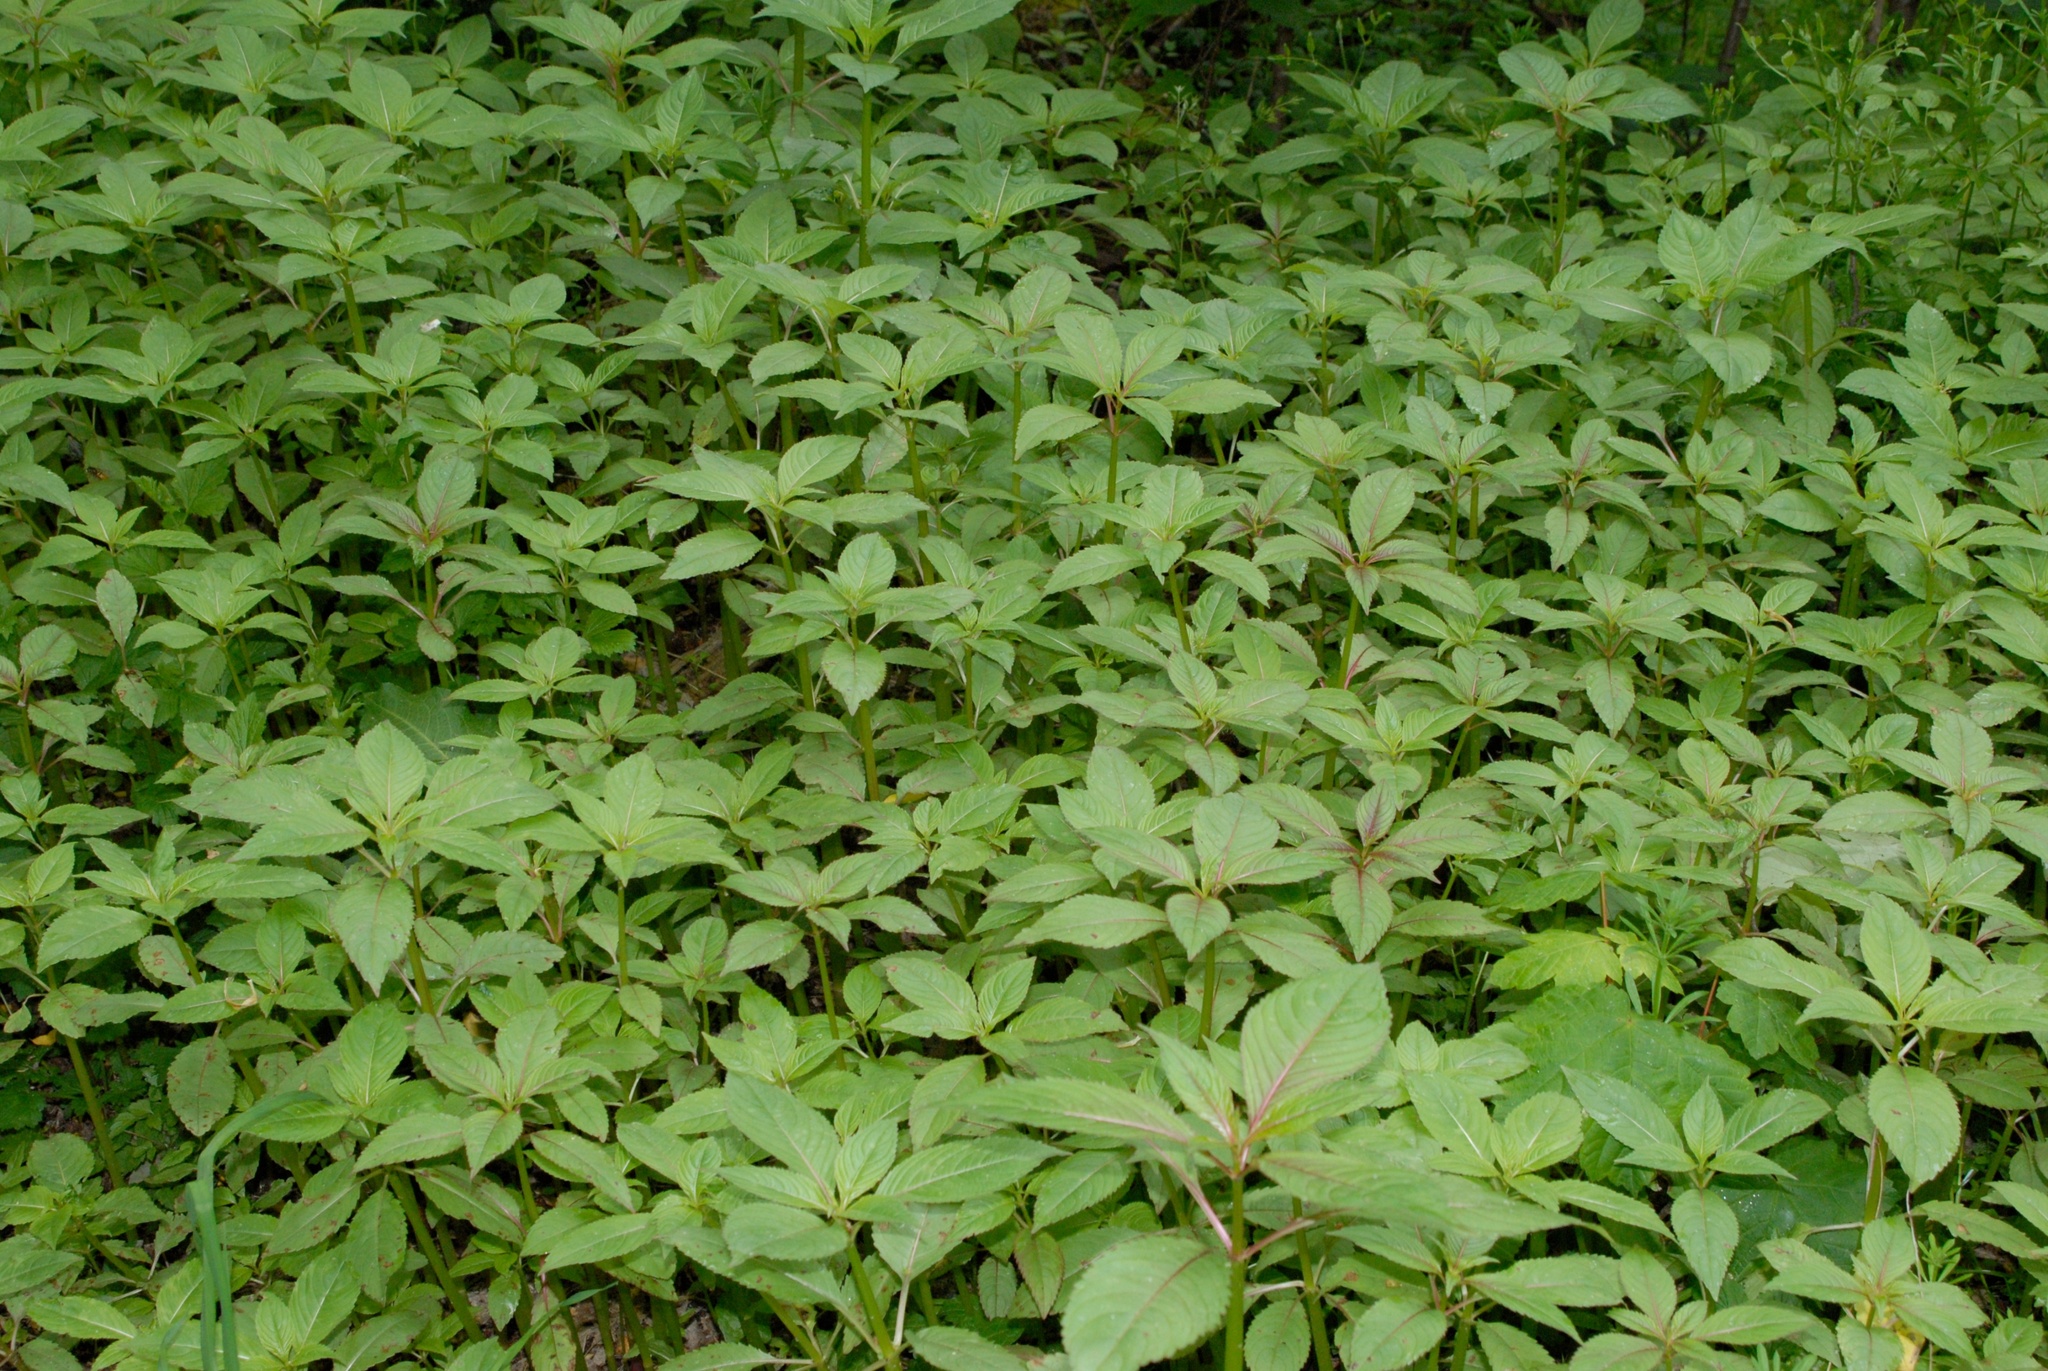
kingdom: Plantae
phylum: Tracheophyta
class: Magnoliopsida
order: Ericales
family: Balsaminaceae
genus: Impatiens
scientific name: Impatiens glandulifera
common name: Himalayan balsam
